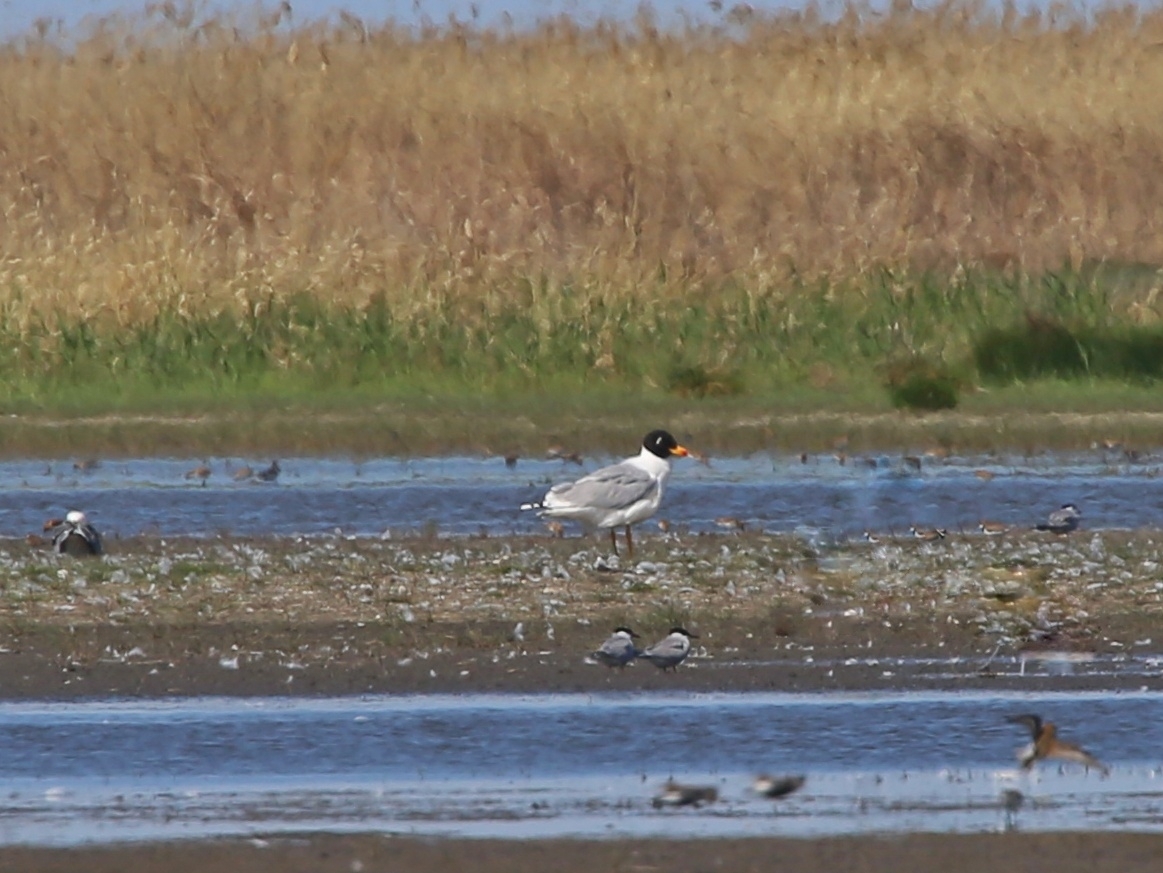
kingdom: Animalia
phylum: Chordata
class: Aves
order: Charadriiformes
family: Laridae
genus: Ichthyaetus
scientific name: Ichthyaetus ichthyaetus
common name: Pallas's gull
